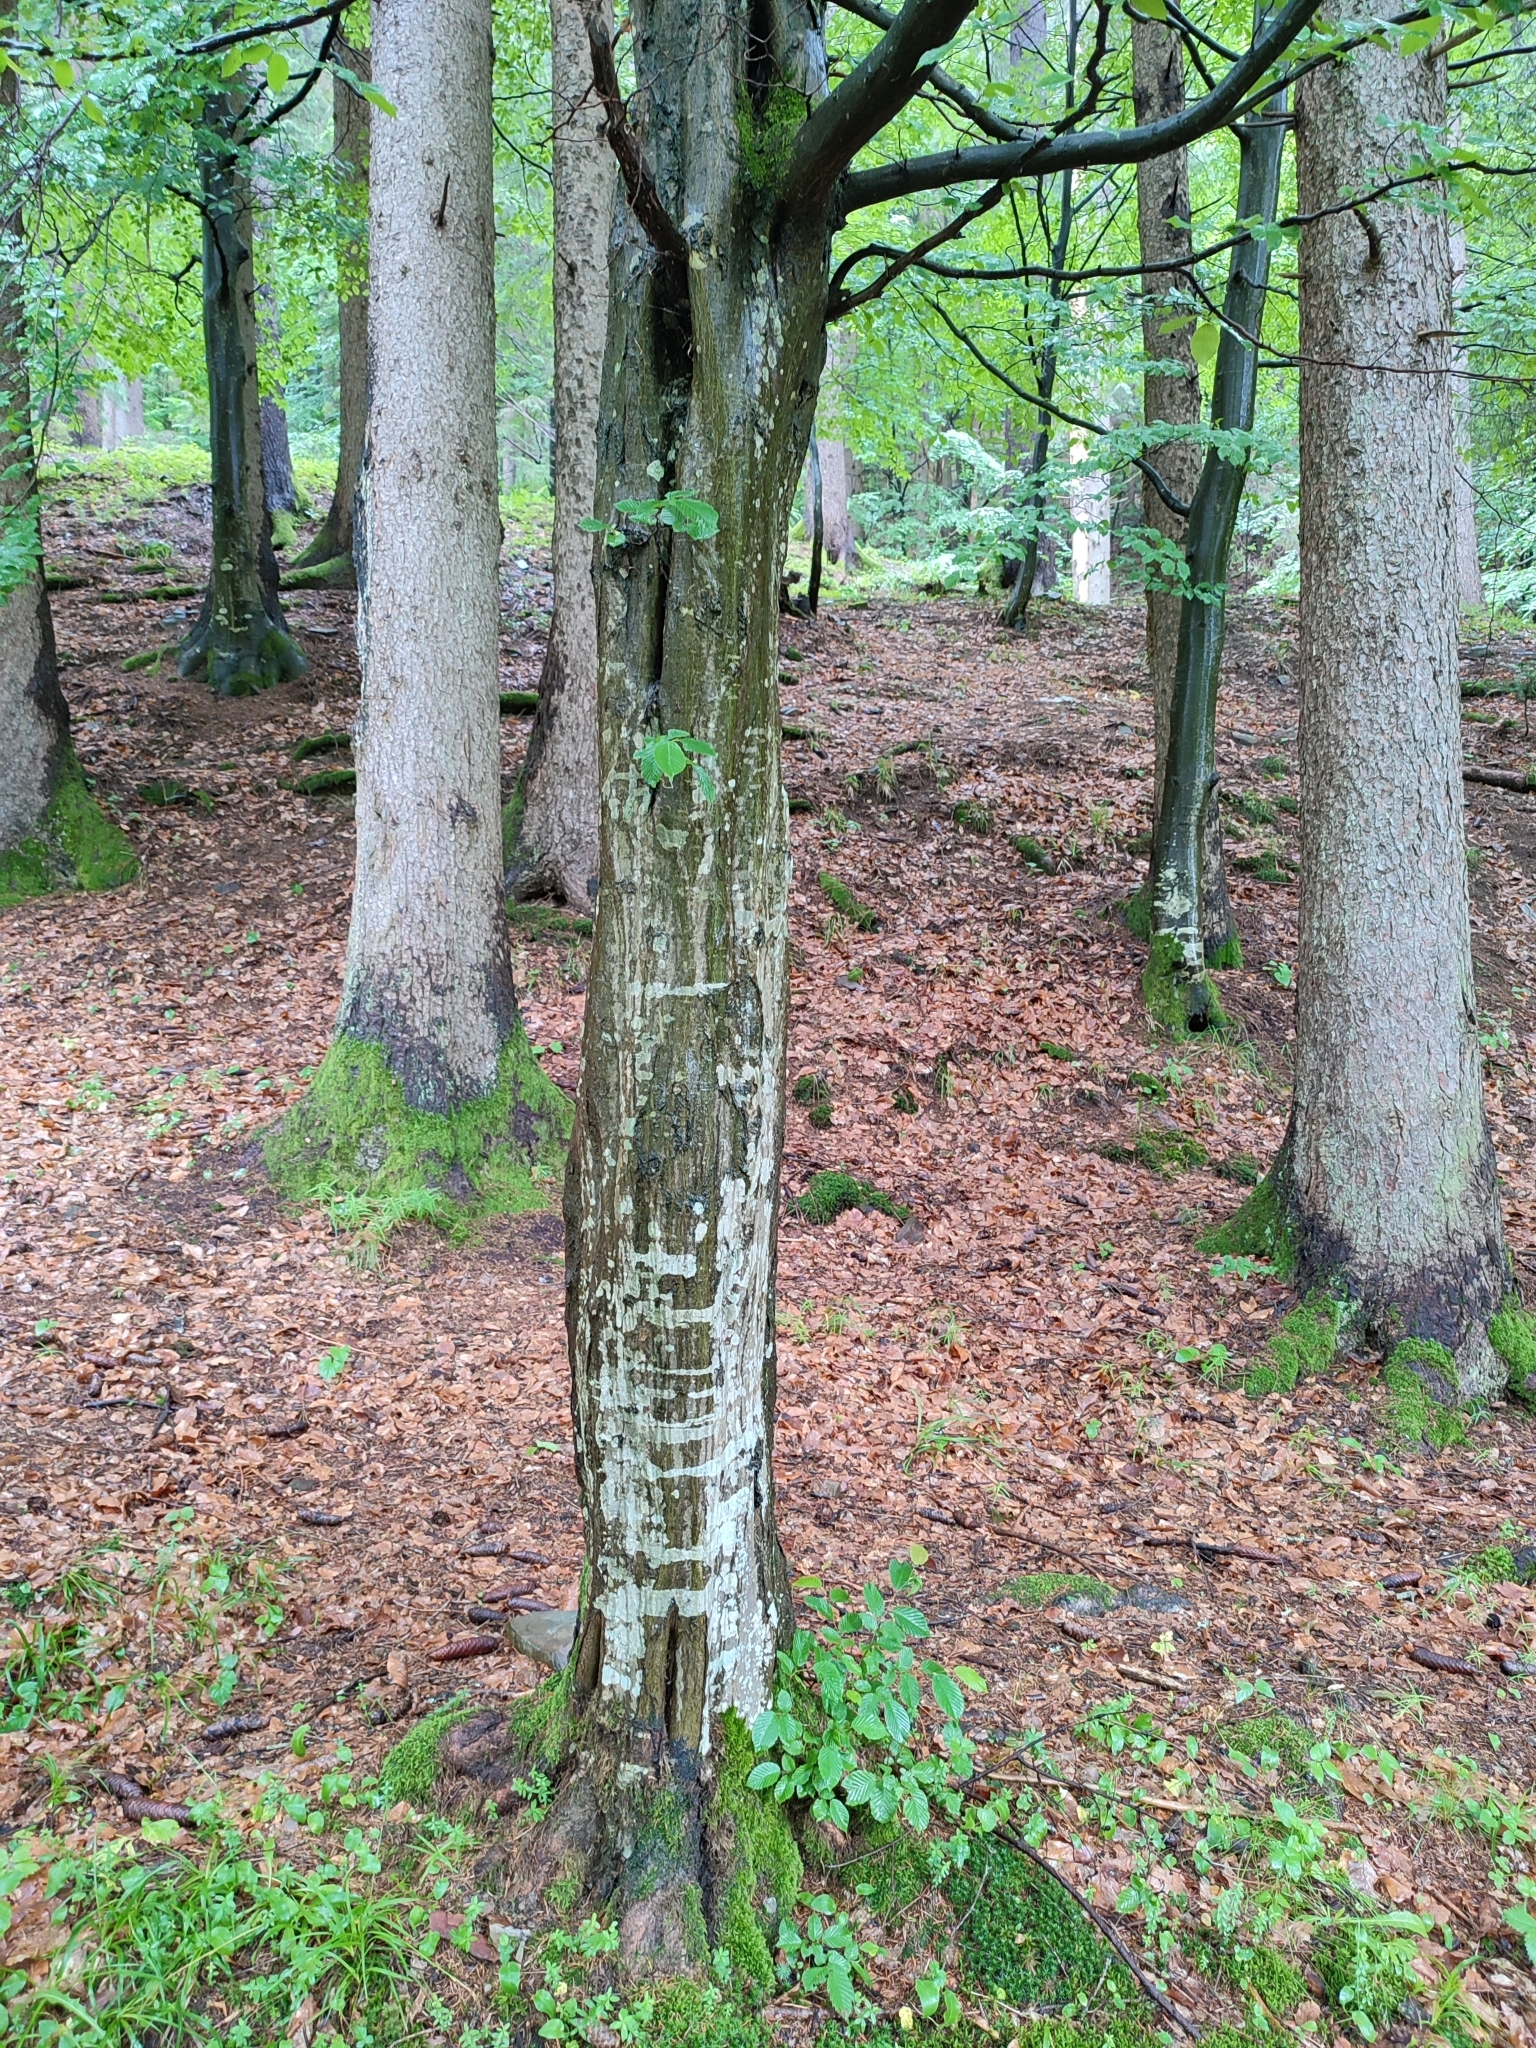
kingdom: Plantae
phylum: Tracheophyta
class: Magnoliopsida
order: Fagales
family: Betulaceae
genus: Carpinus
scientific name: Carpinus betulus
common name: Hornbeam
